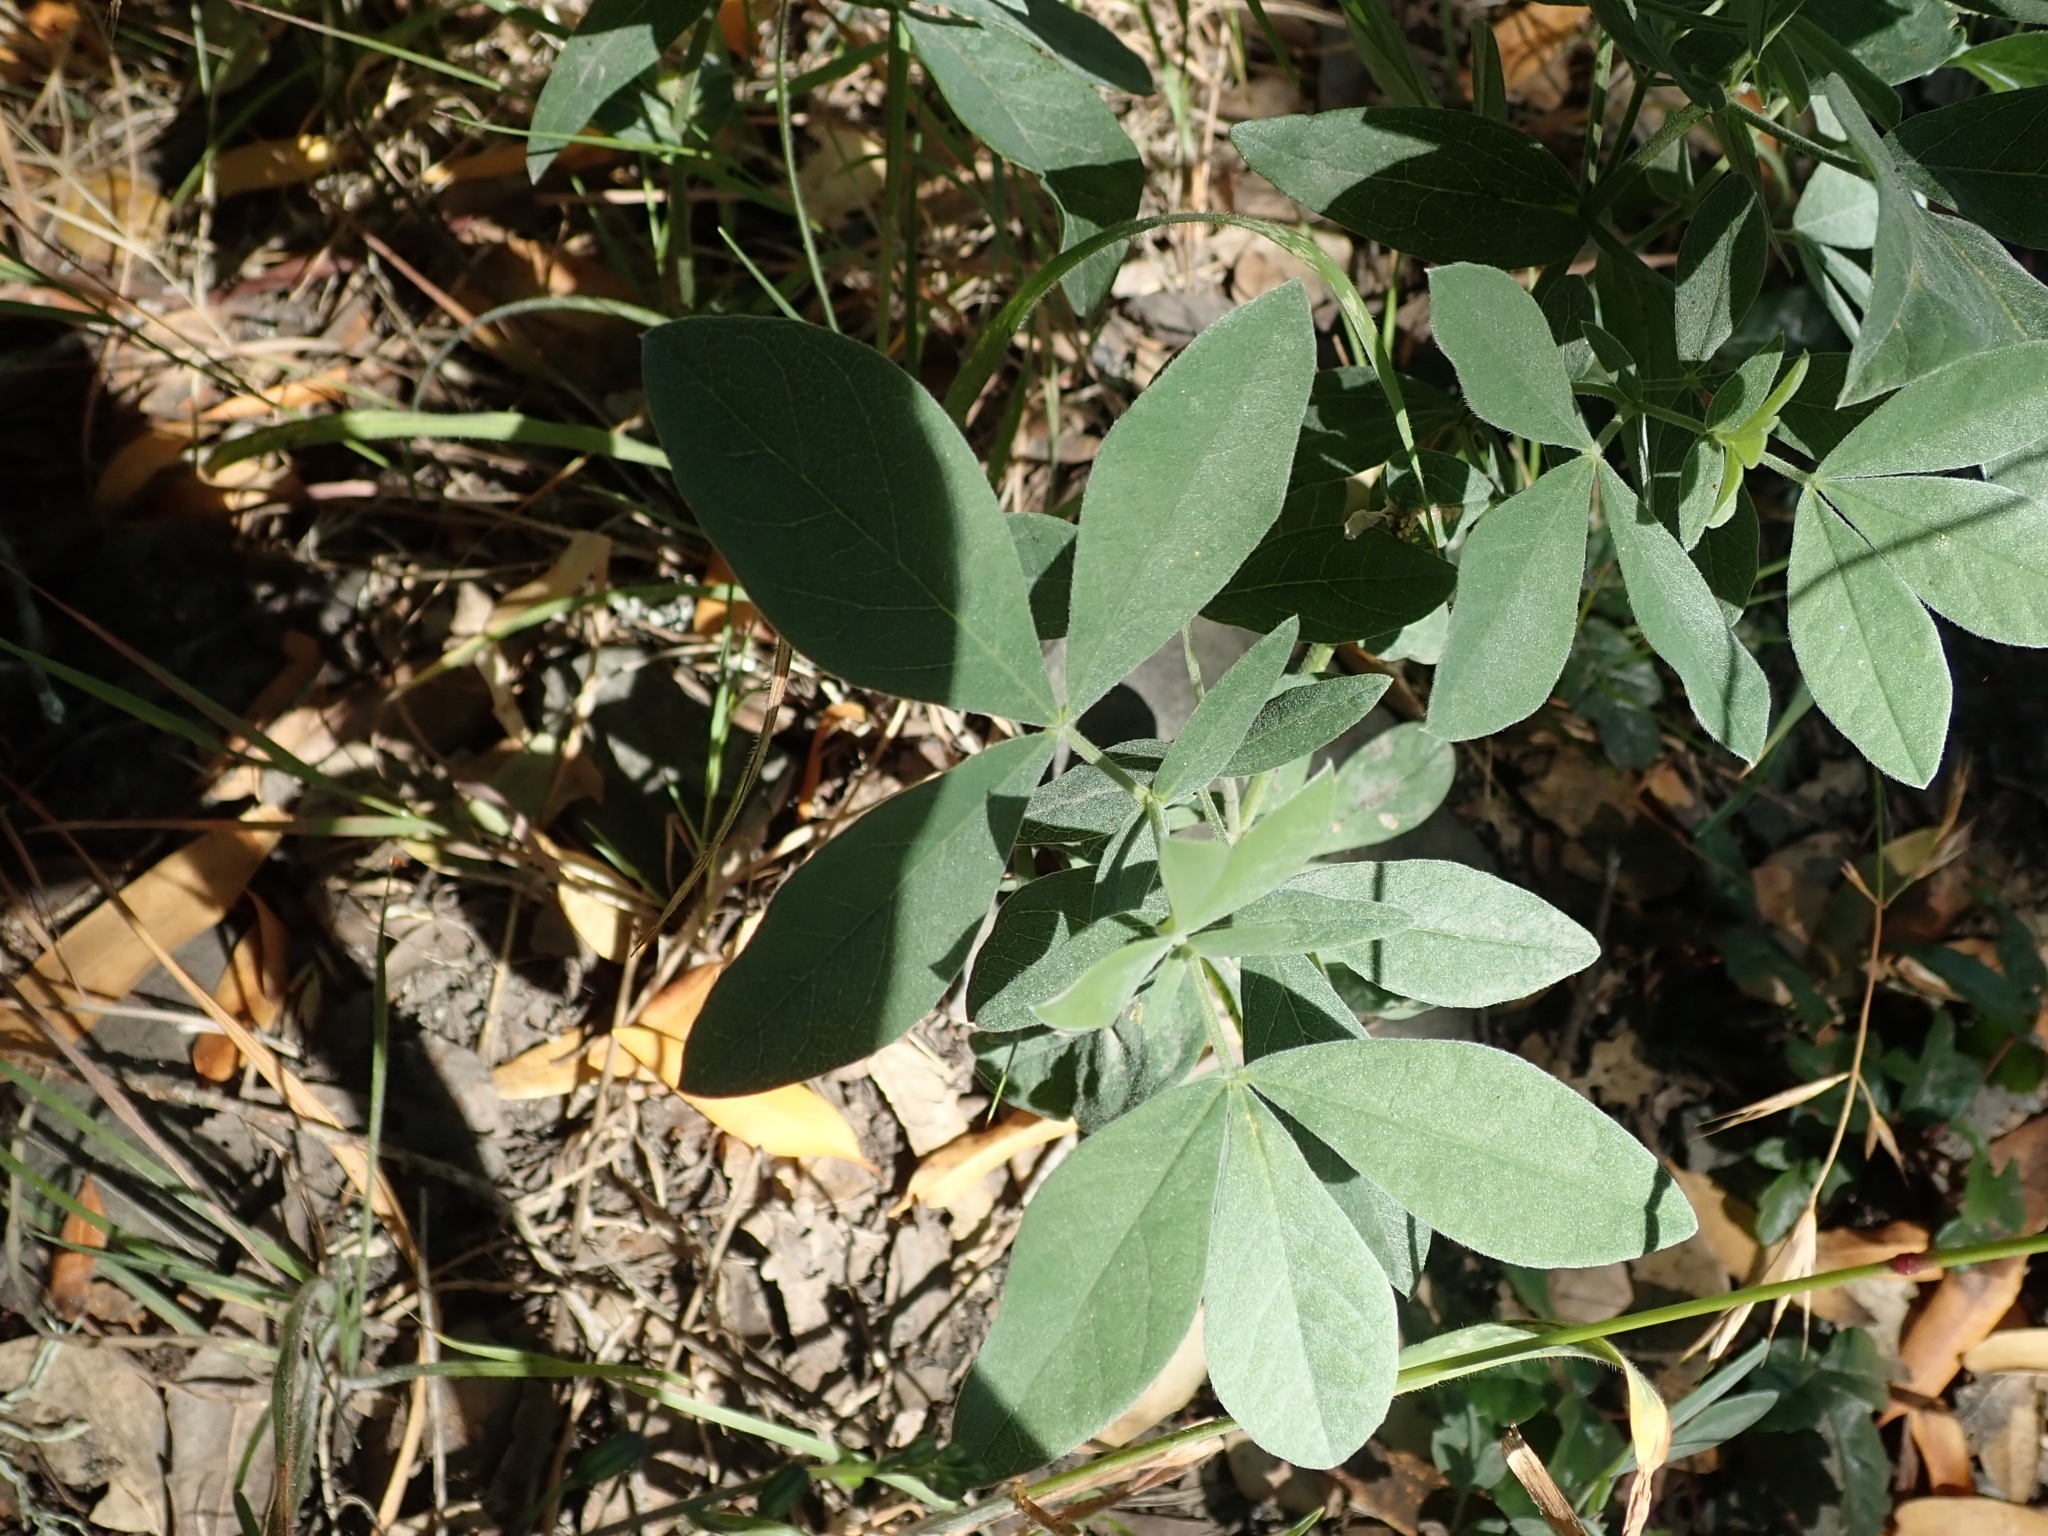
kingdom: Plantae
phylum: Tracheophyta
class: Magnoliopsida
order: Fabales
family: Fabaceae
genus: Thermopsis
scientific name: Thermopsis californica
